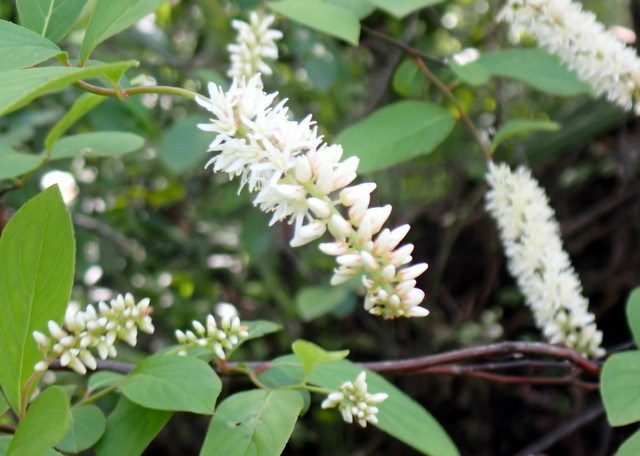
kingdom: Plantae
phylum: Tracheophyta
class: Magnoliopsida
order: Saxifragales
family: Iteaceae
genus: Itea
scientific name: Itea virginica
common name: Sweetspire
